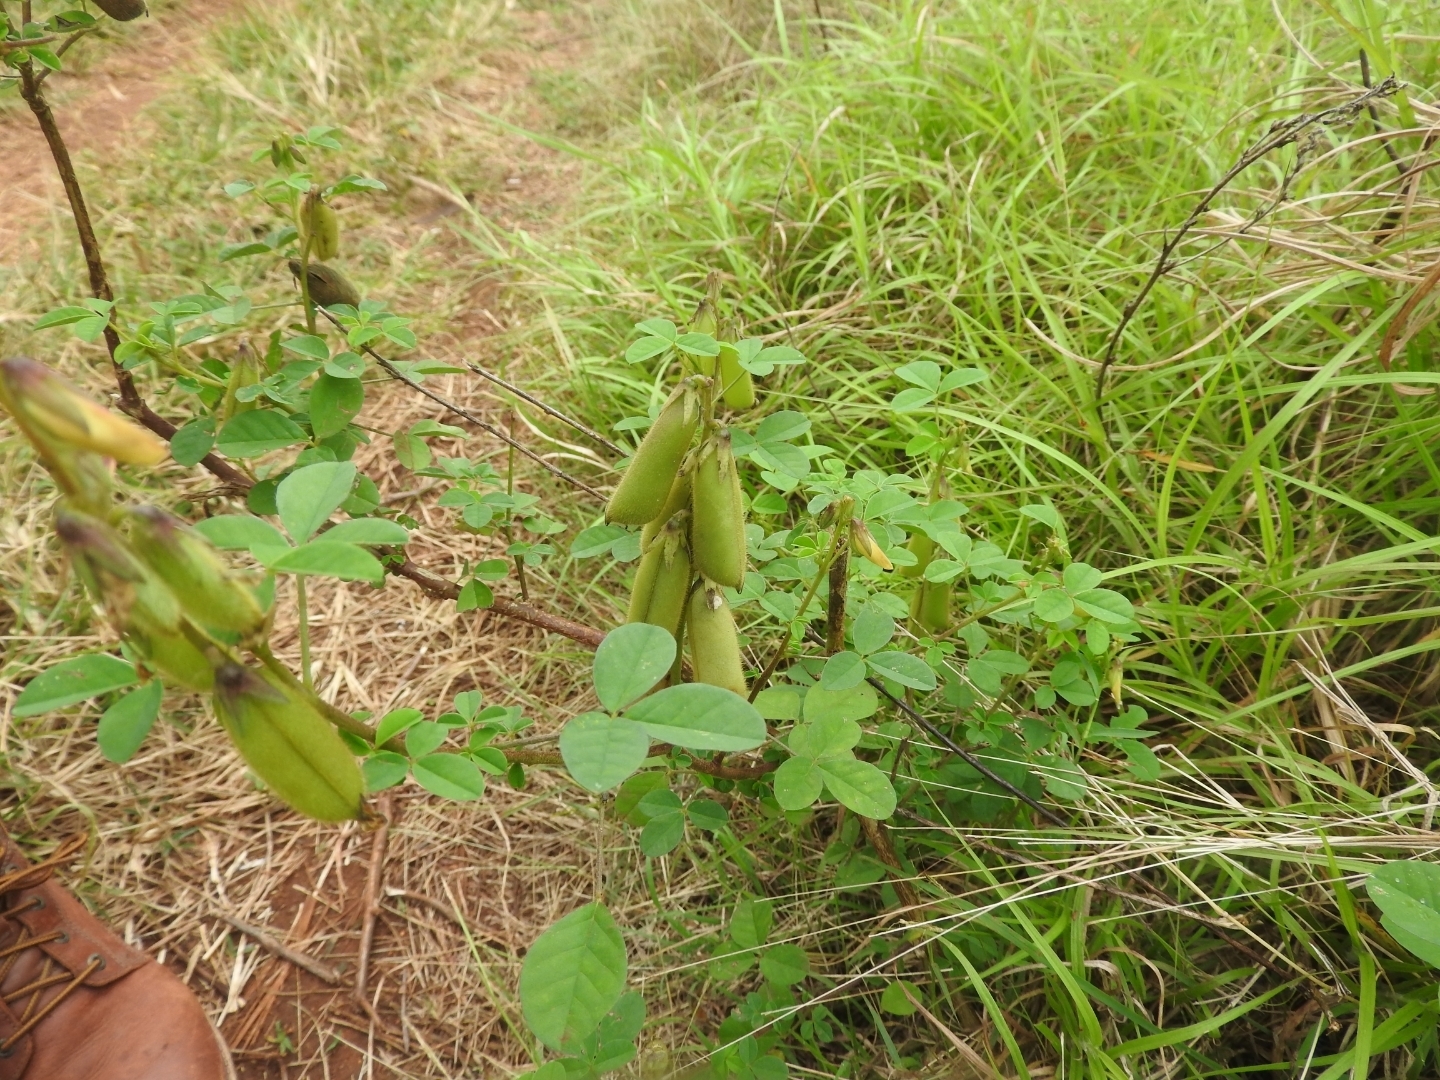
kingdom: Plantae
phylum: Tracheophyta
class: Magnoliopsida
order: Fabales
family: Fabaceae
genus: Crotalaria
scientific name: Crotalaria incana
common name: Shakeshake
